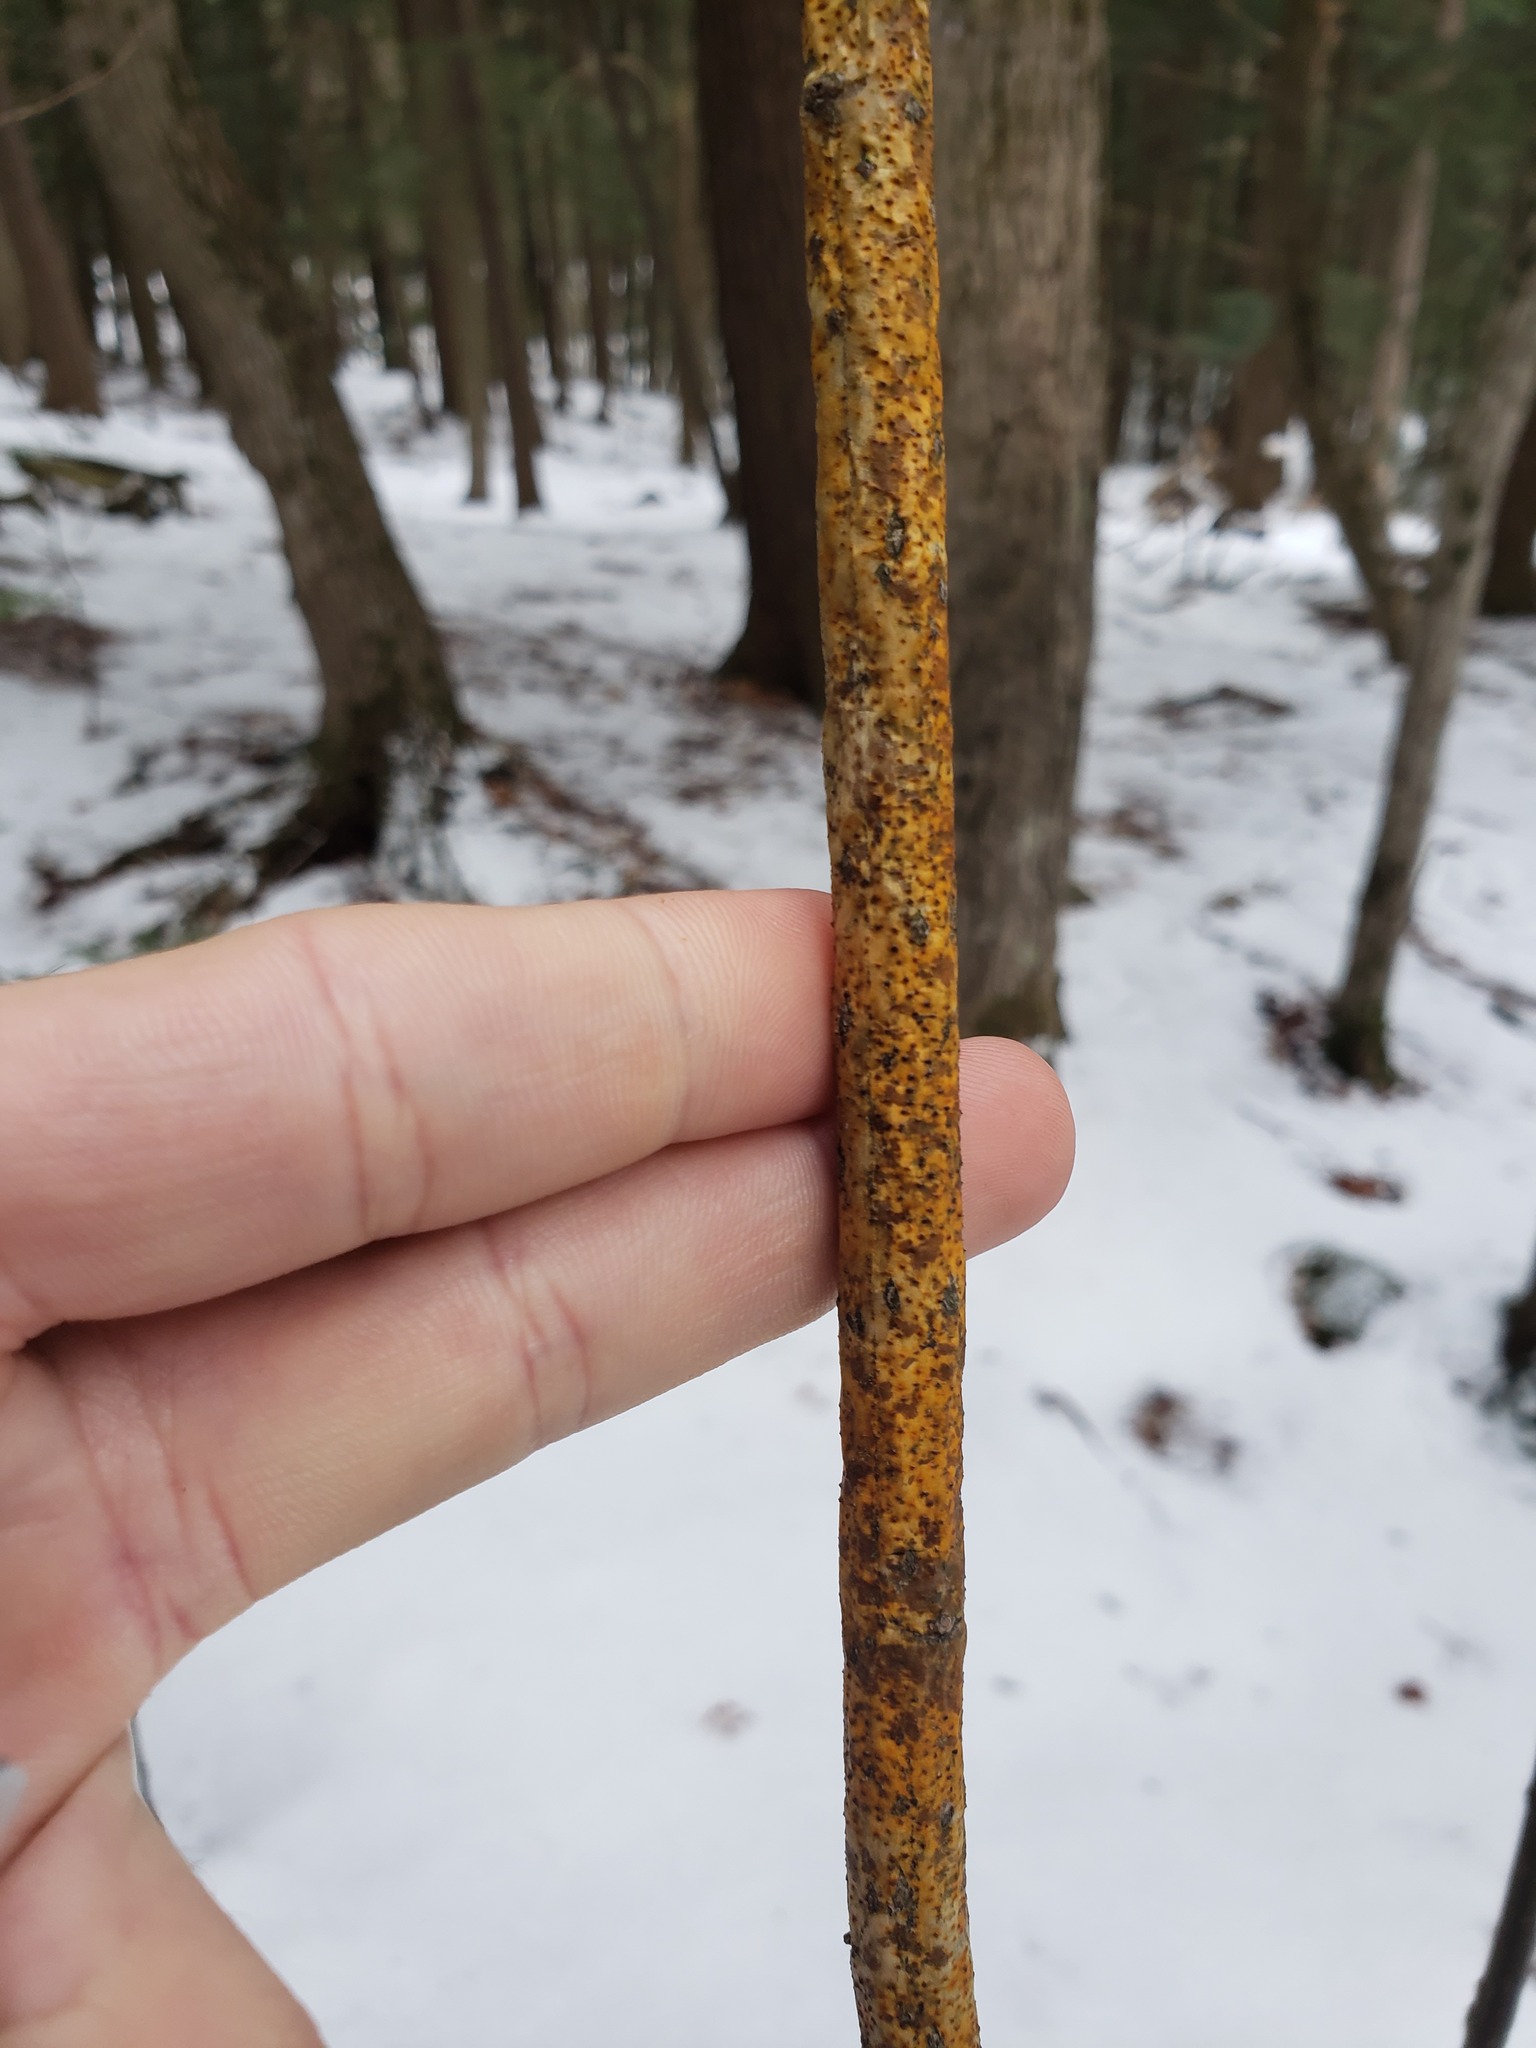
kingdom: Fungi
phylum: Ascomycota
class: Sordariomycetes
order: Diaporthales
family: Cryphonectriaceae
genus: Aurantioporthe
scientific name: Aurantioporthe corni
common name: Dogwood golden canker
